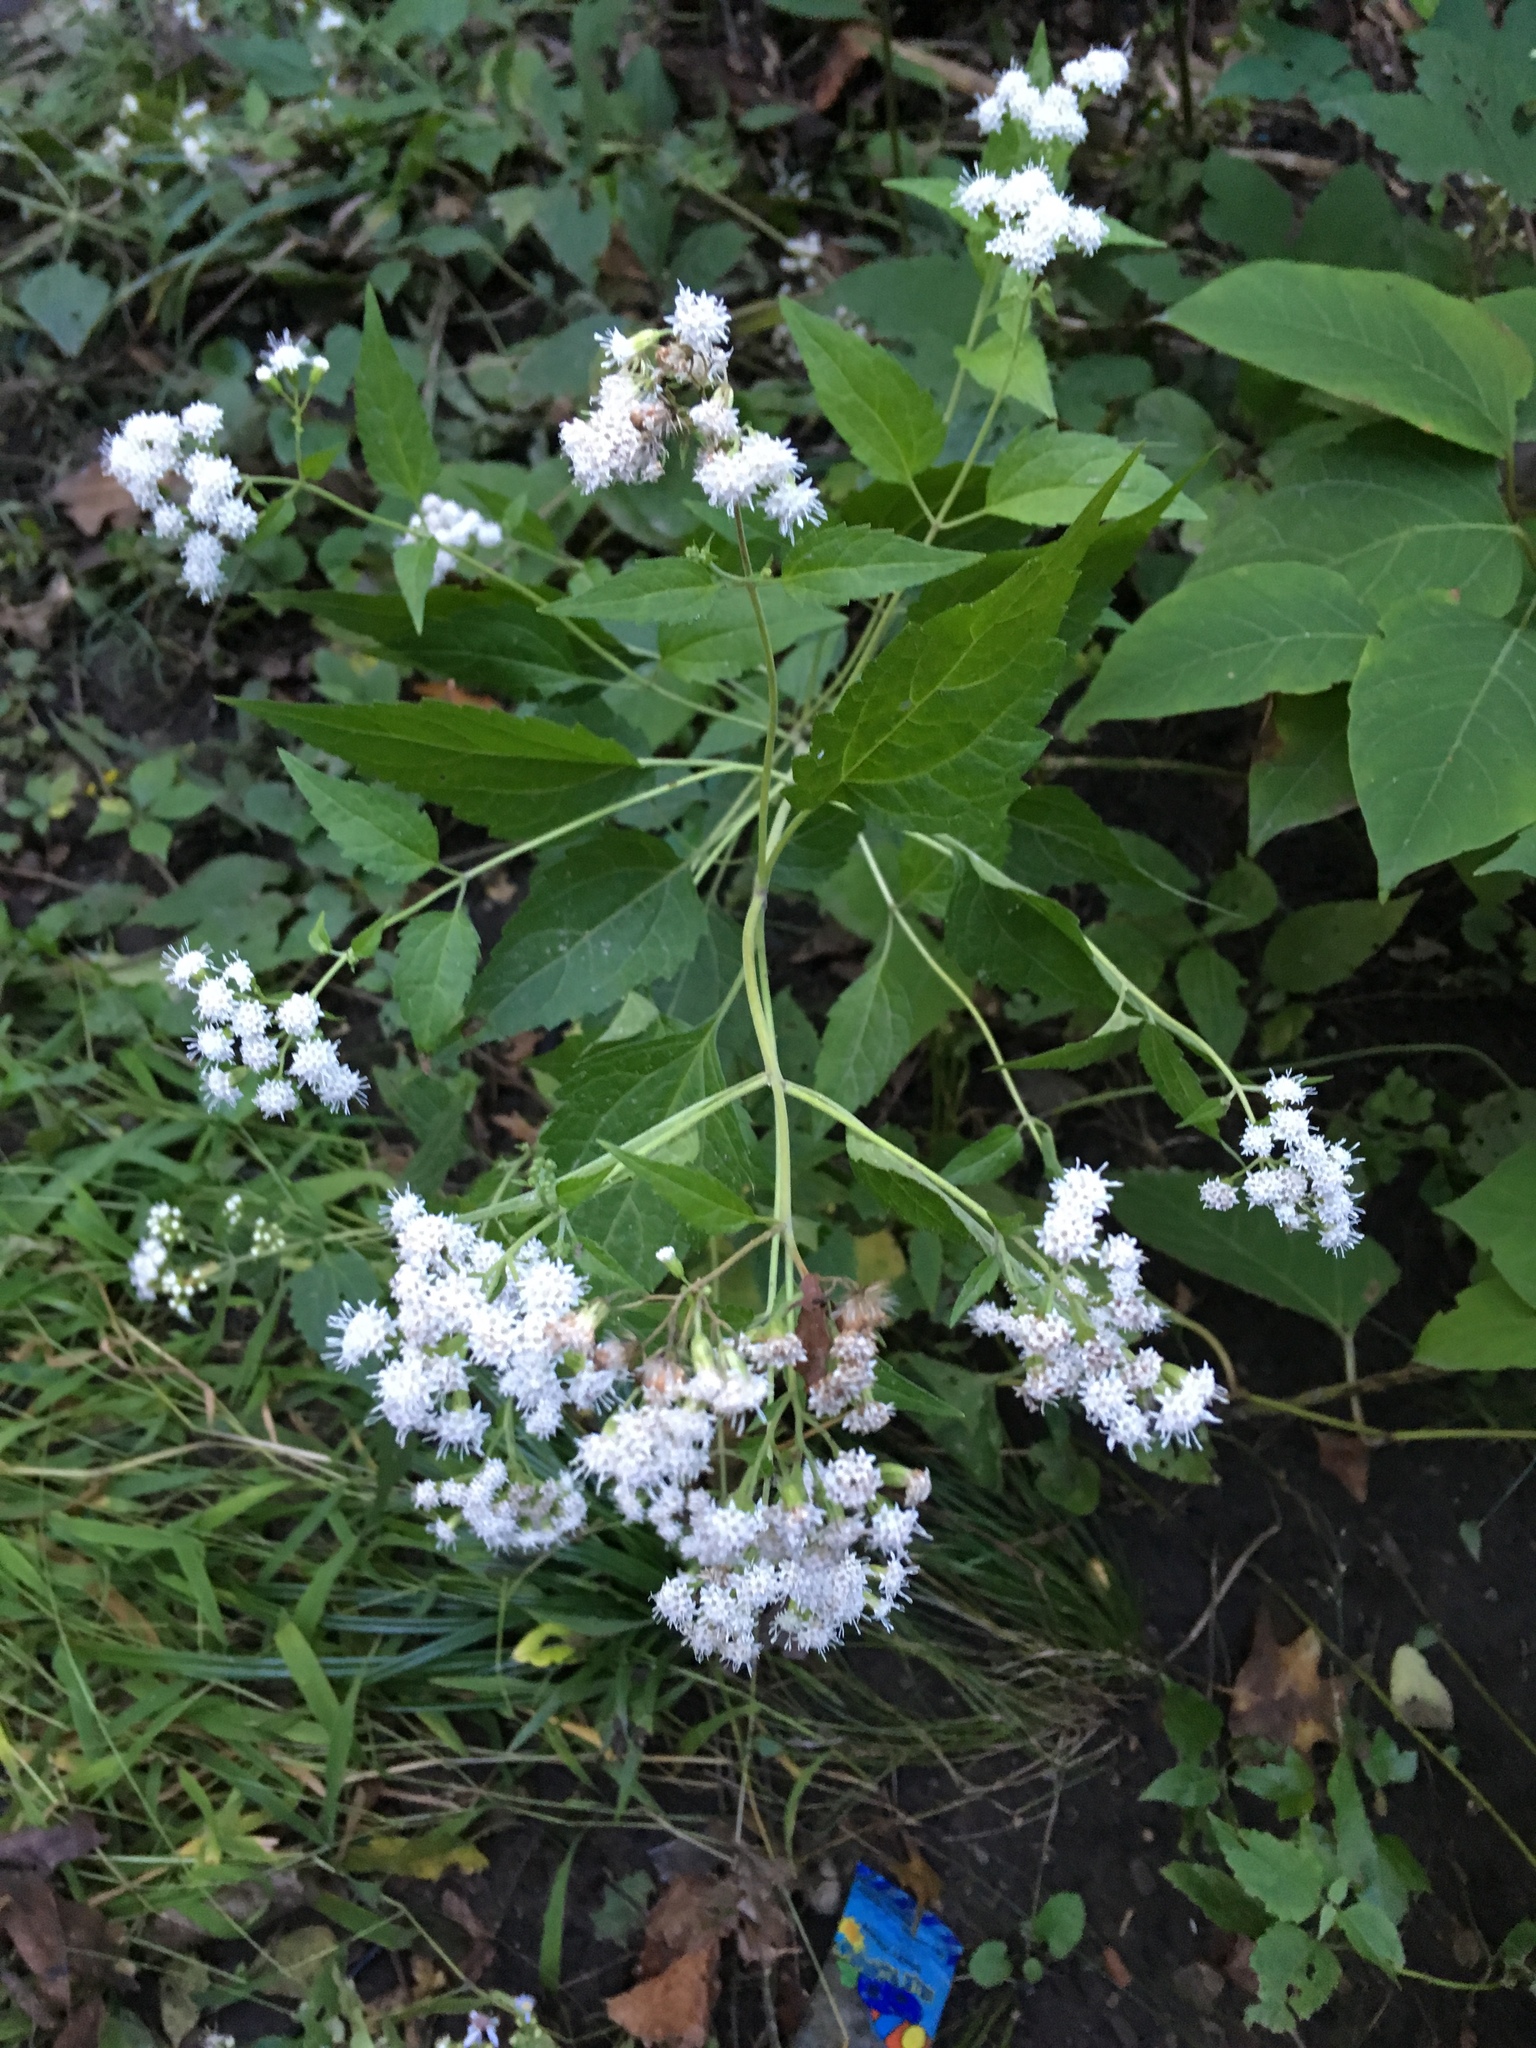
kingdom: Plantae
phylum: Tracheophyta
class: Magnoliopsida
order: Asterales
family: Asteraceae
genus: Ageratina
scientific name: Ageratina altissima
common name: White snakeroot
